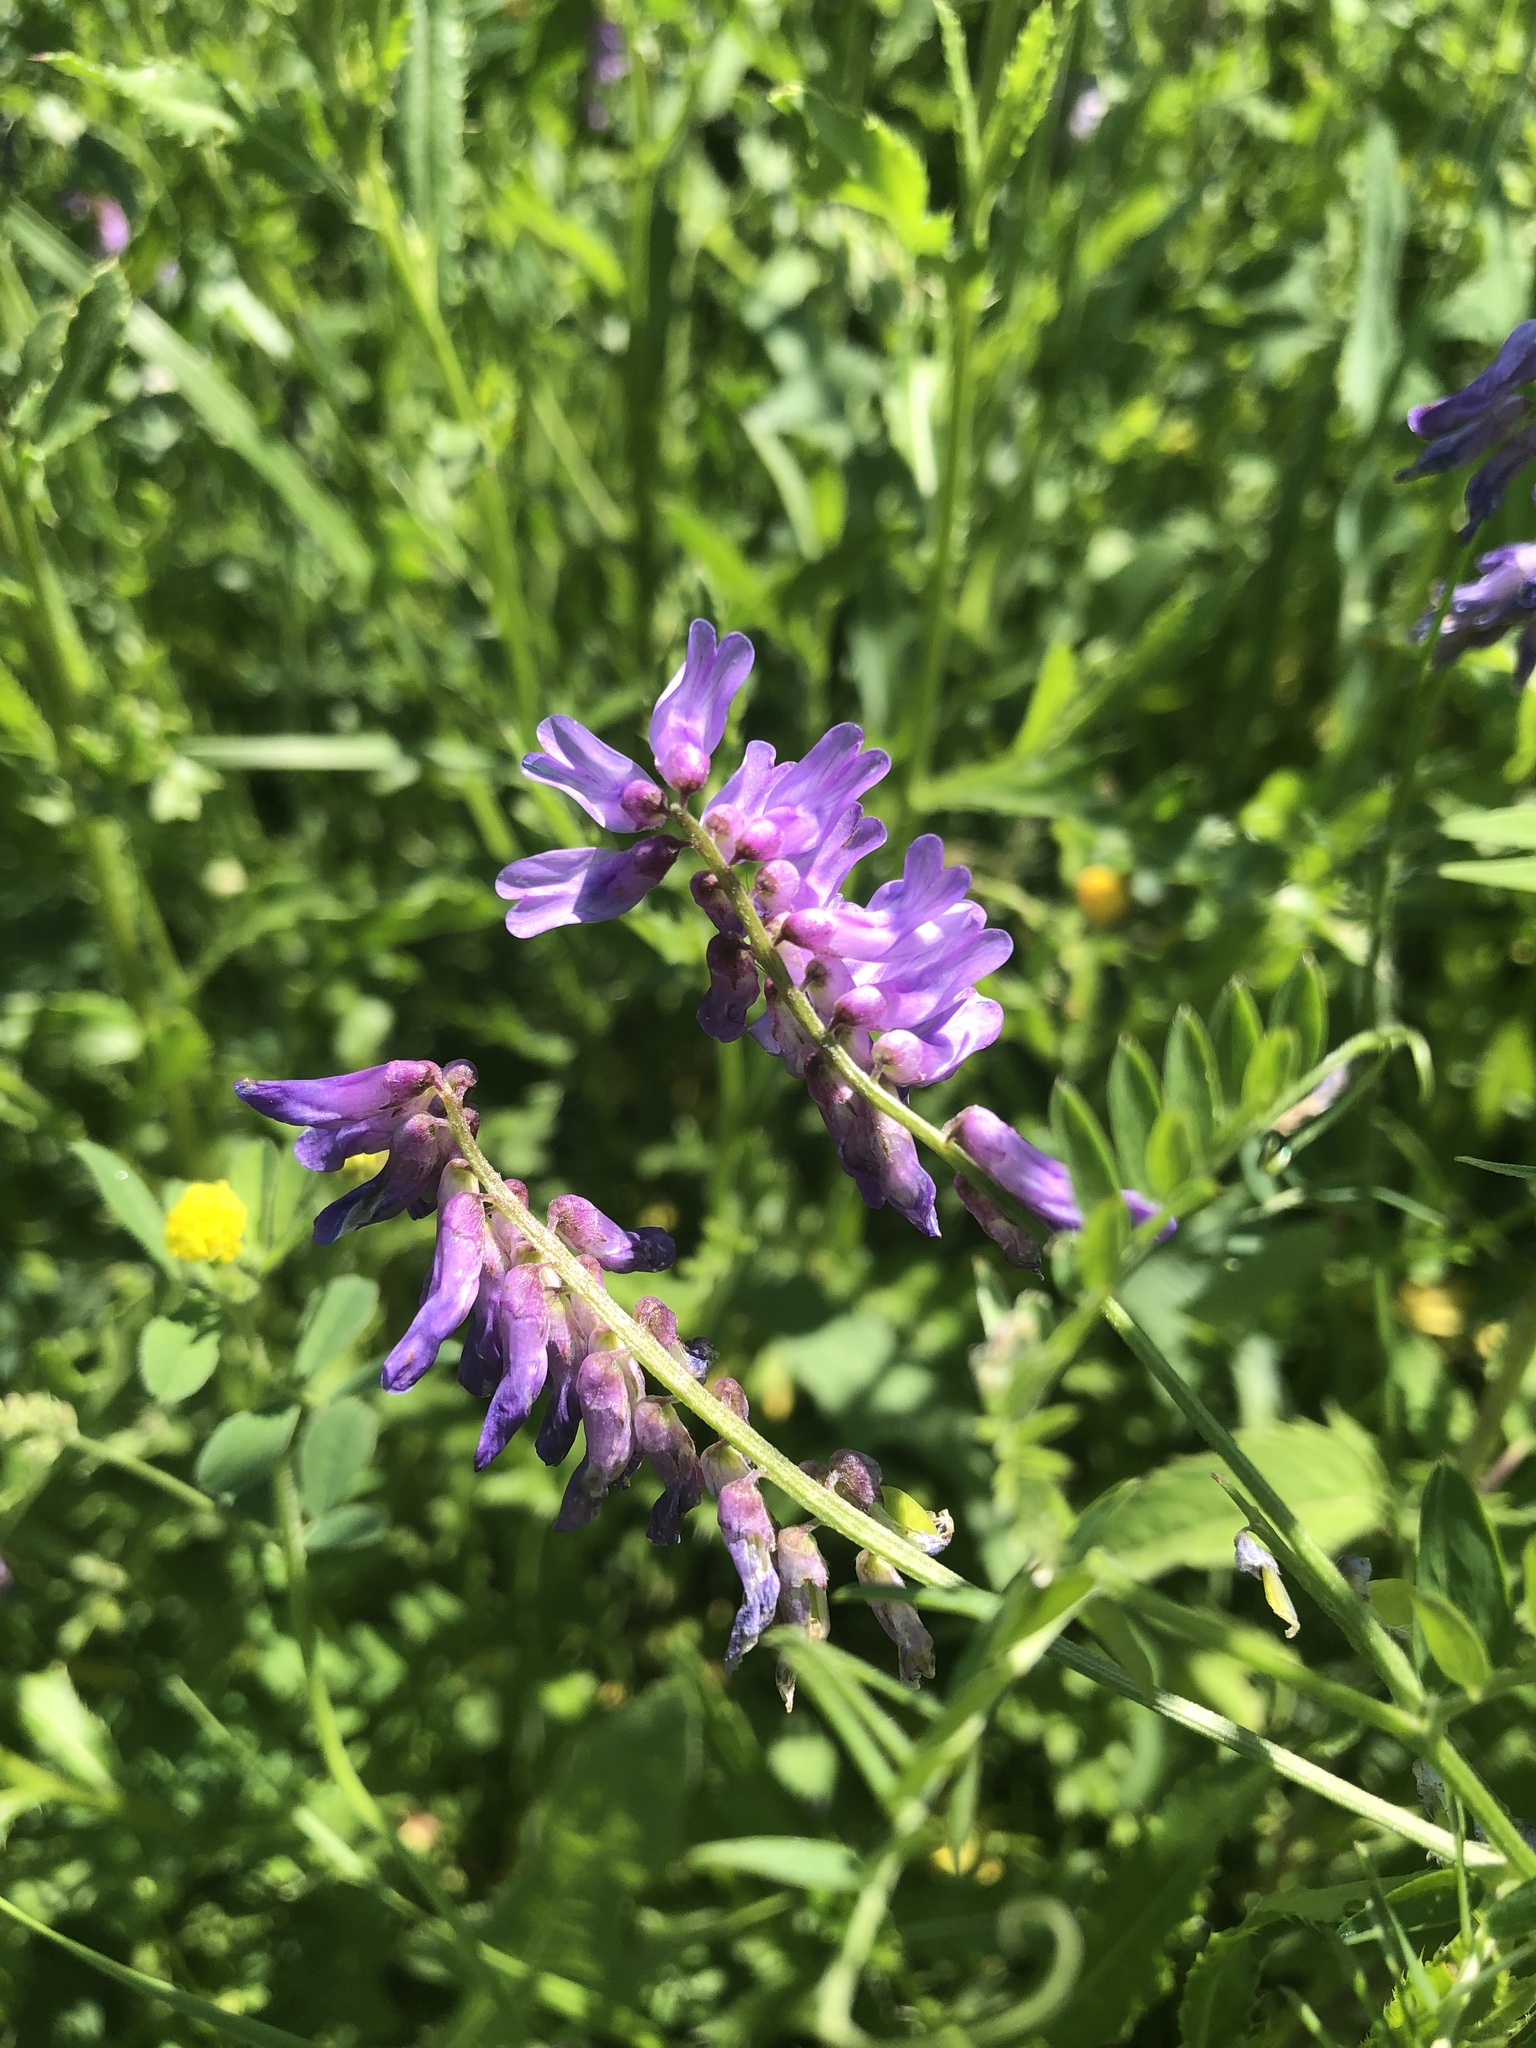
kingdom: Plantae
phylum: Tracheophyta
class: Magnoliopsida
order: Fabales
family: Fabaceae
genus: Vicia
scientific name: Vicia cracca
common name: Bird vetch
